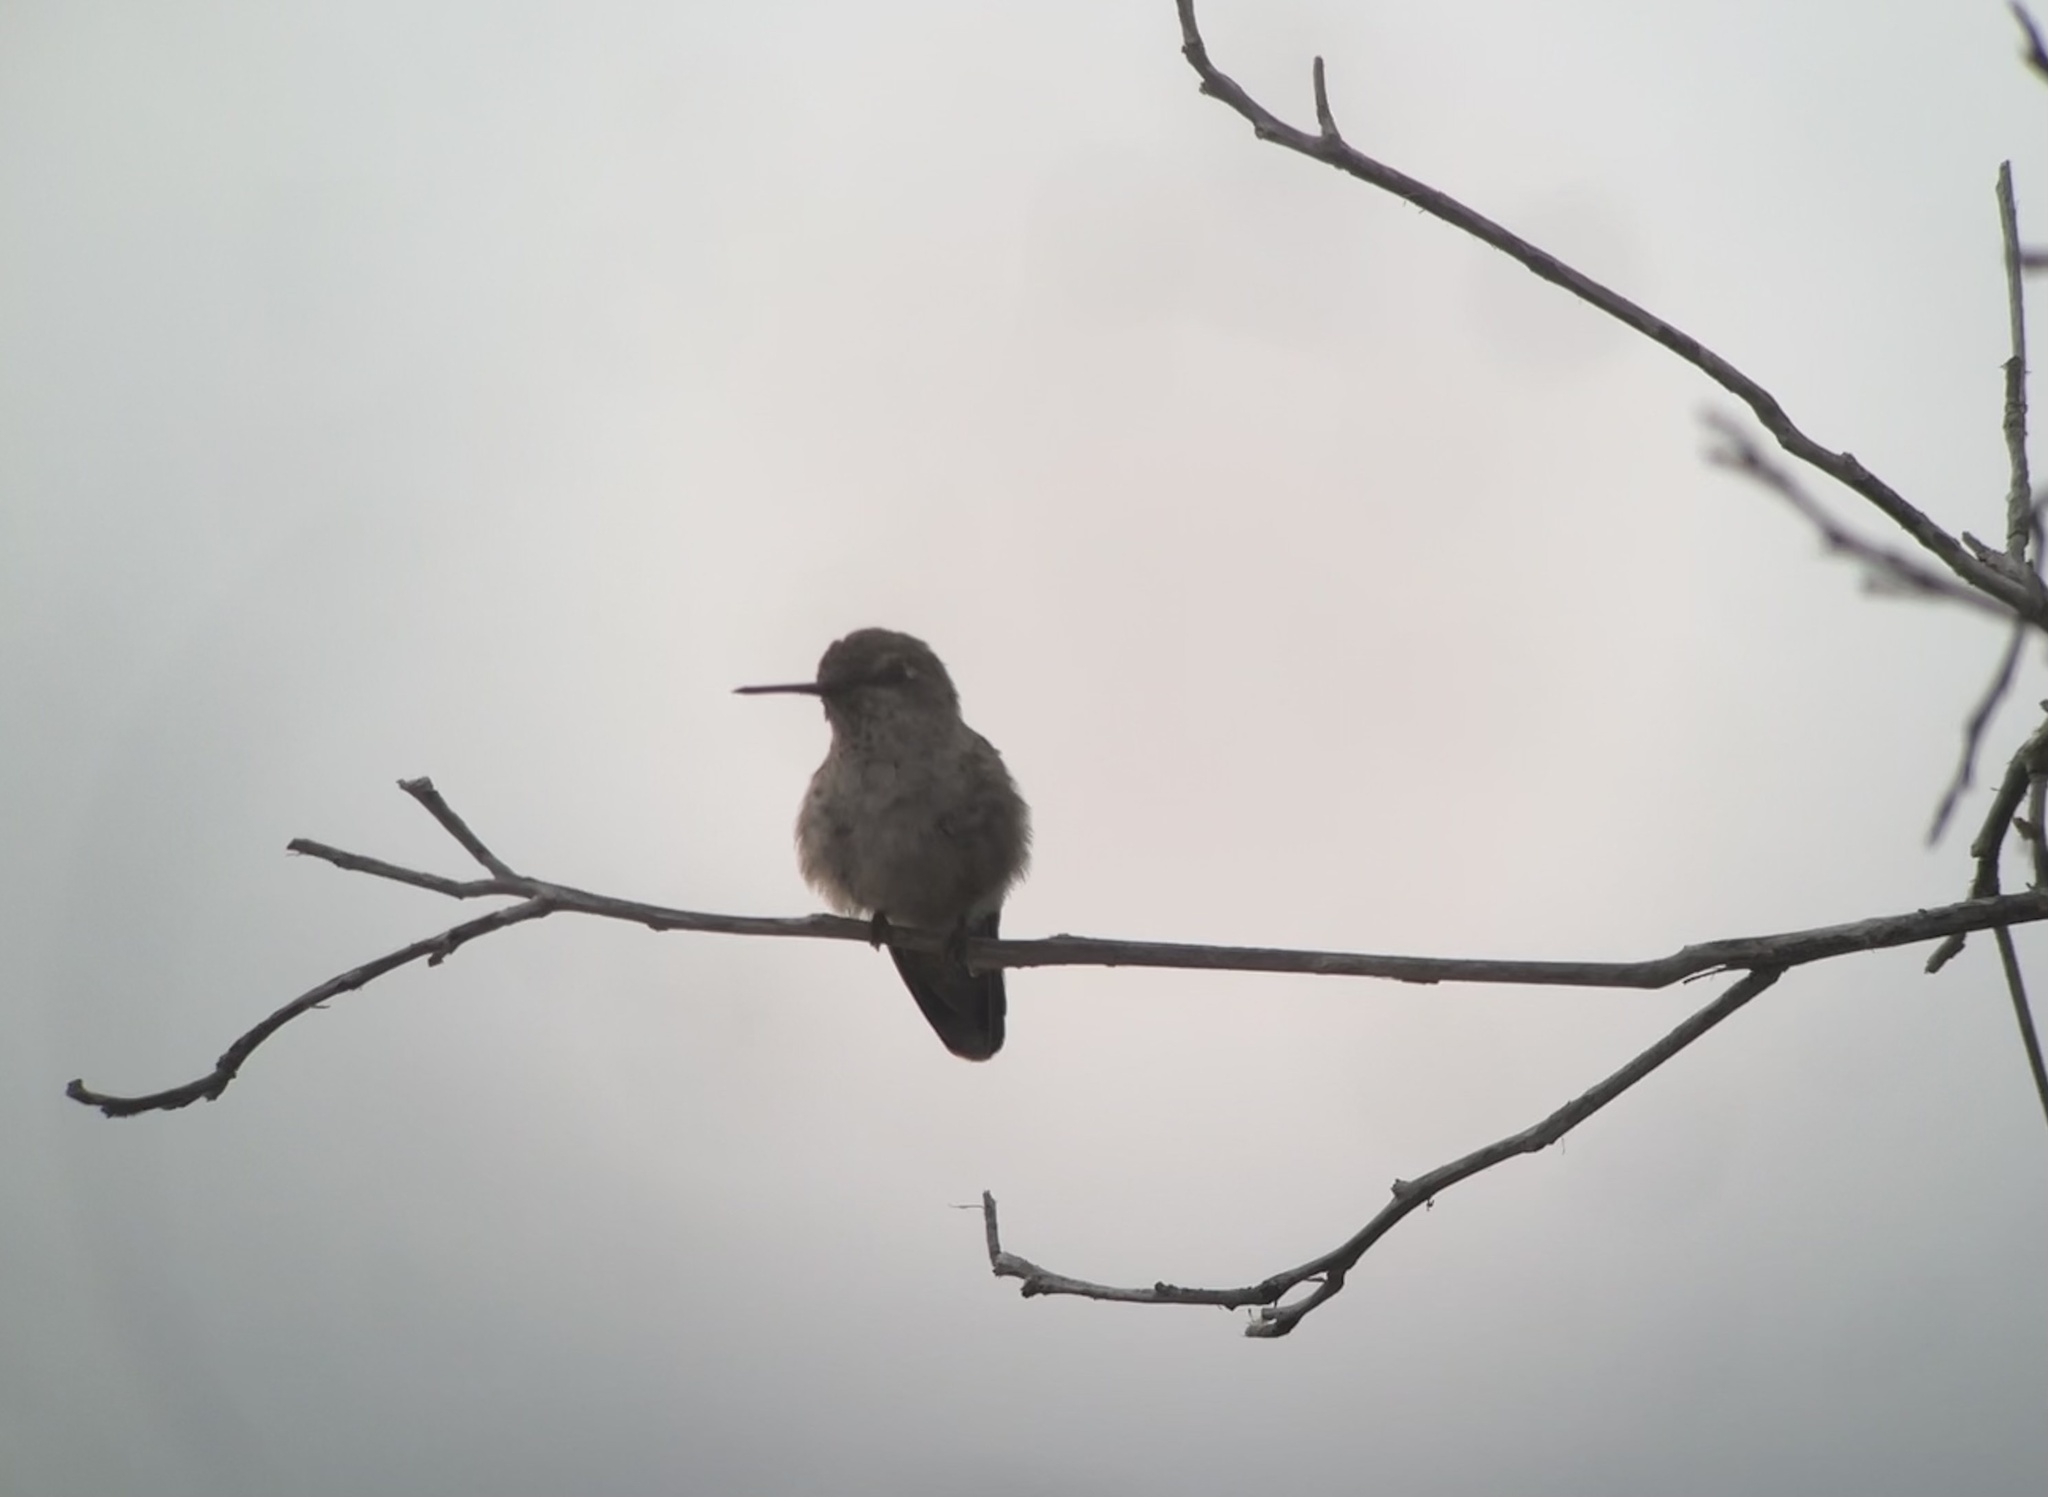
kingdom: Animalia
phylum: Chordata
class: Aves
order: Apodiformes
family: Trochilidae
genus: Calypte
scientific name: Calypte anna
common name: Anna's hummingbird
